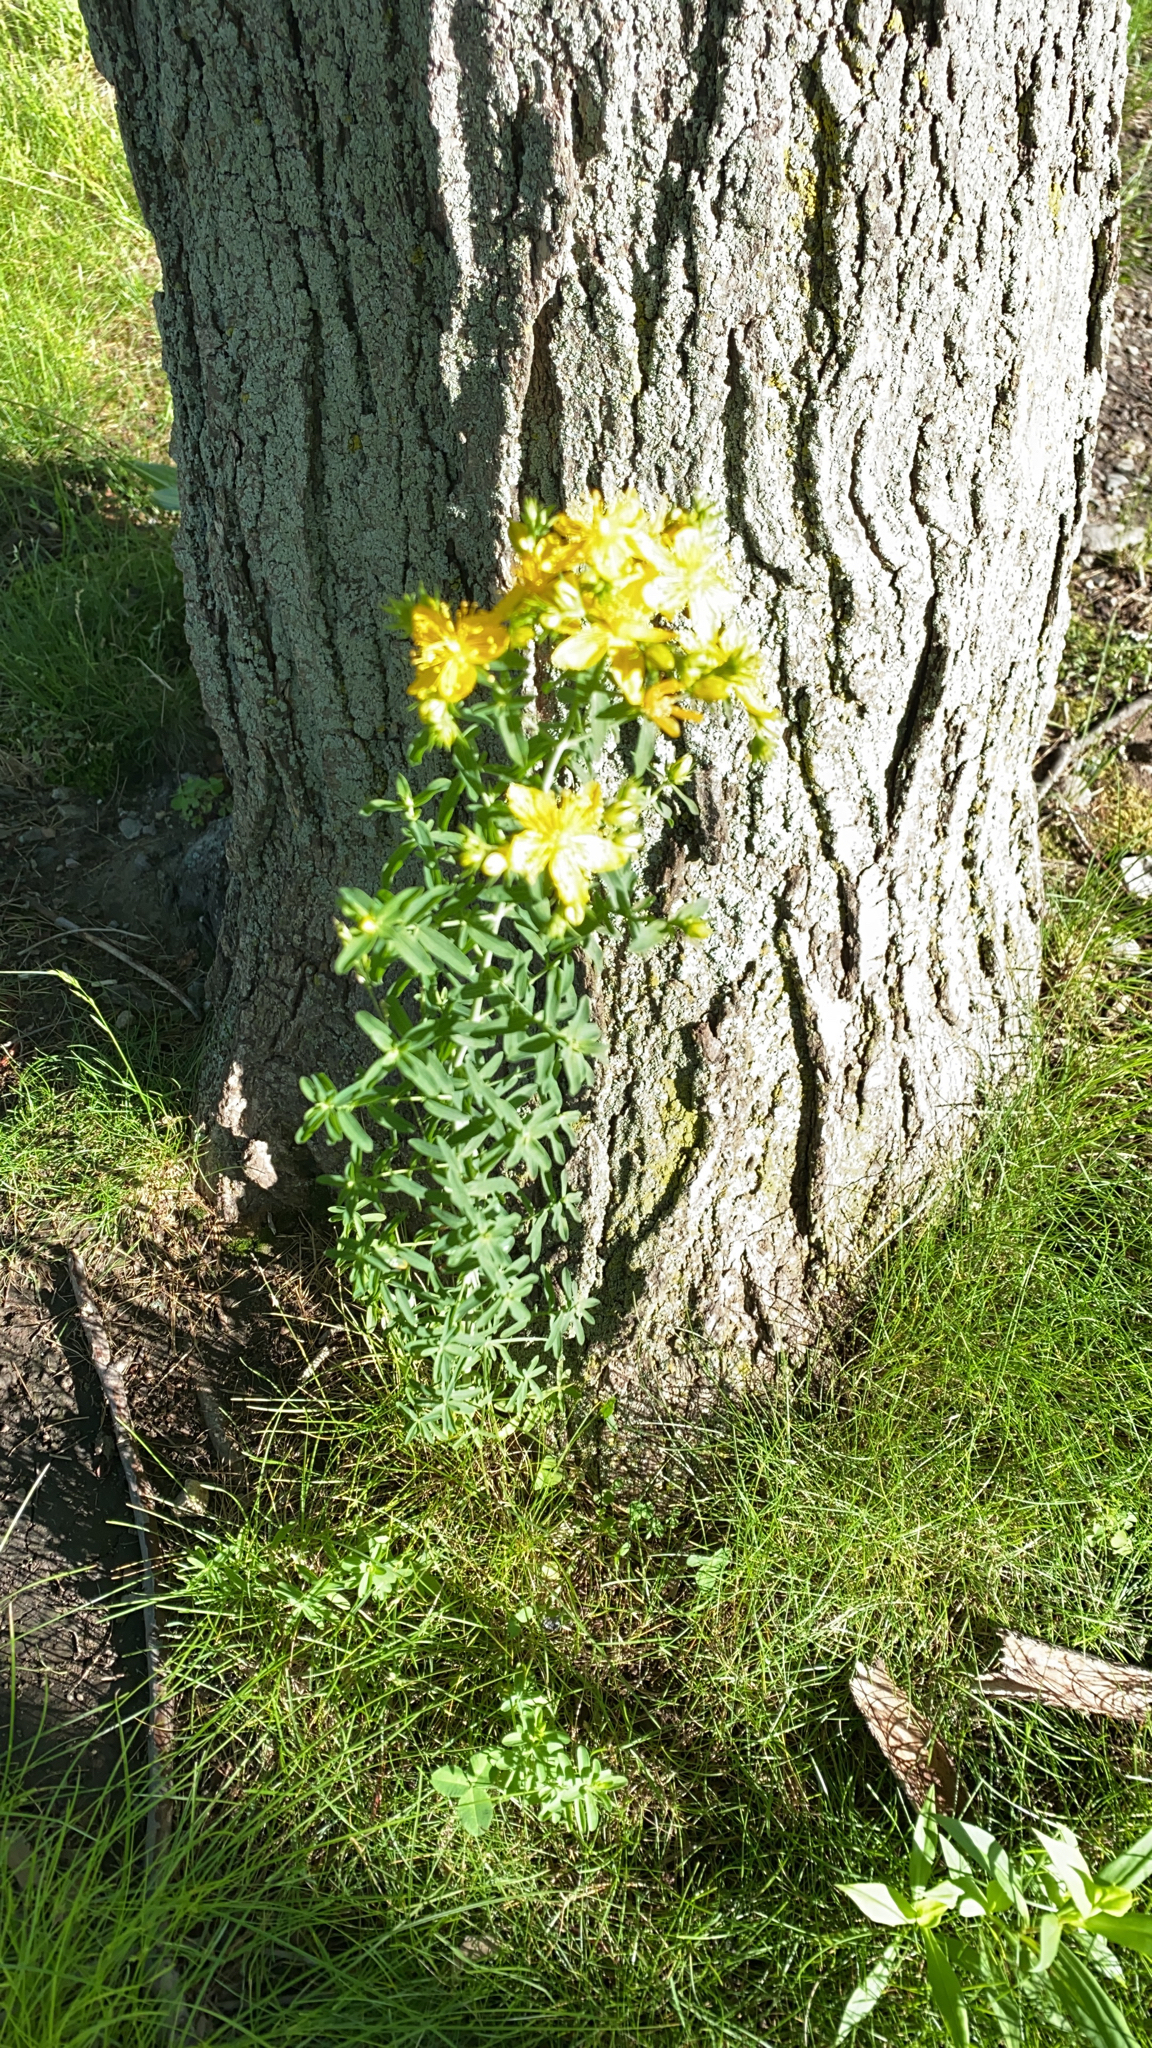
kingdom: Plantae
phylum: Tracheophyta
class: Magnoliopsida
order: Malpighiales
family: Hypericaceae
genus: Hypericum
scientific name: Hypericum perforatum
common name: Common st. johnswort
